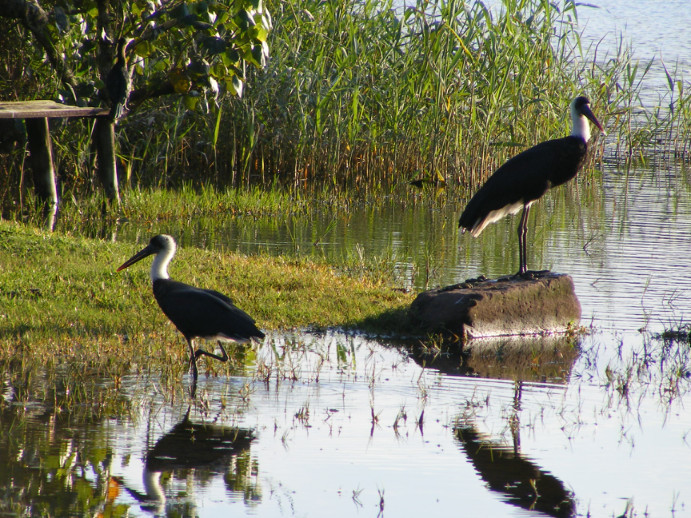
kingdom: Animalia
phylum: Chordata
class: Aves
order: Ciconiiformes
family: Ciconiidae
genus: Ciconia
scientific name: Ciconia microscelis
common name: African woollyneck
